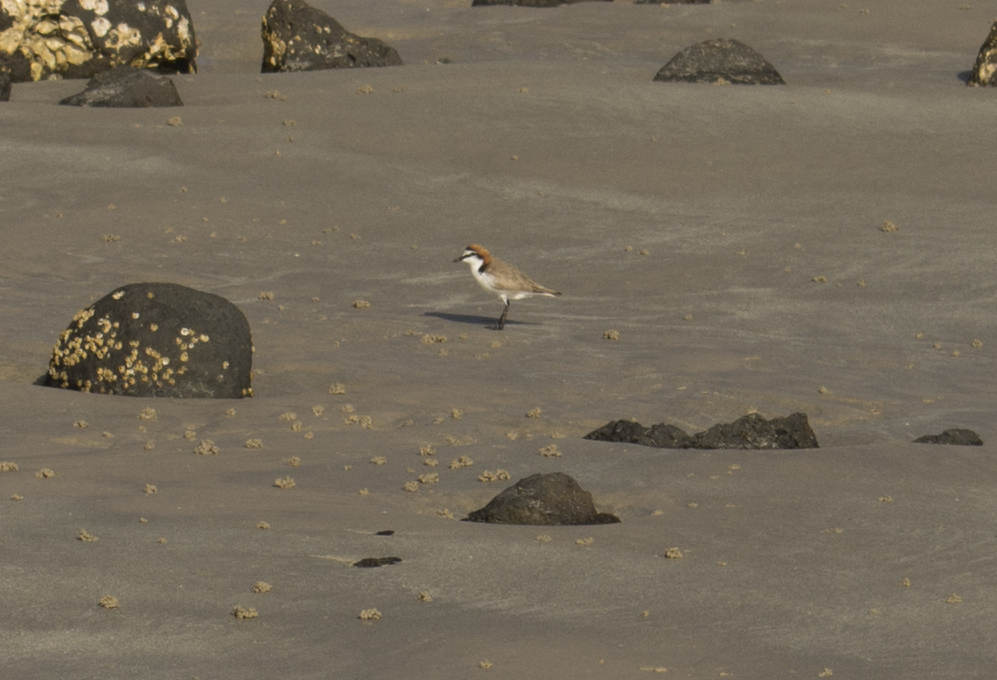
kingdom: Animalia
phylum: Chordata
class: Aves
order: Charadriiformes
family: Charadriidae
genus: Anarhynchus
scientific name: Anarhynchus
